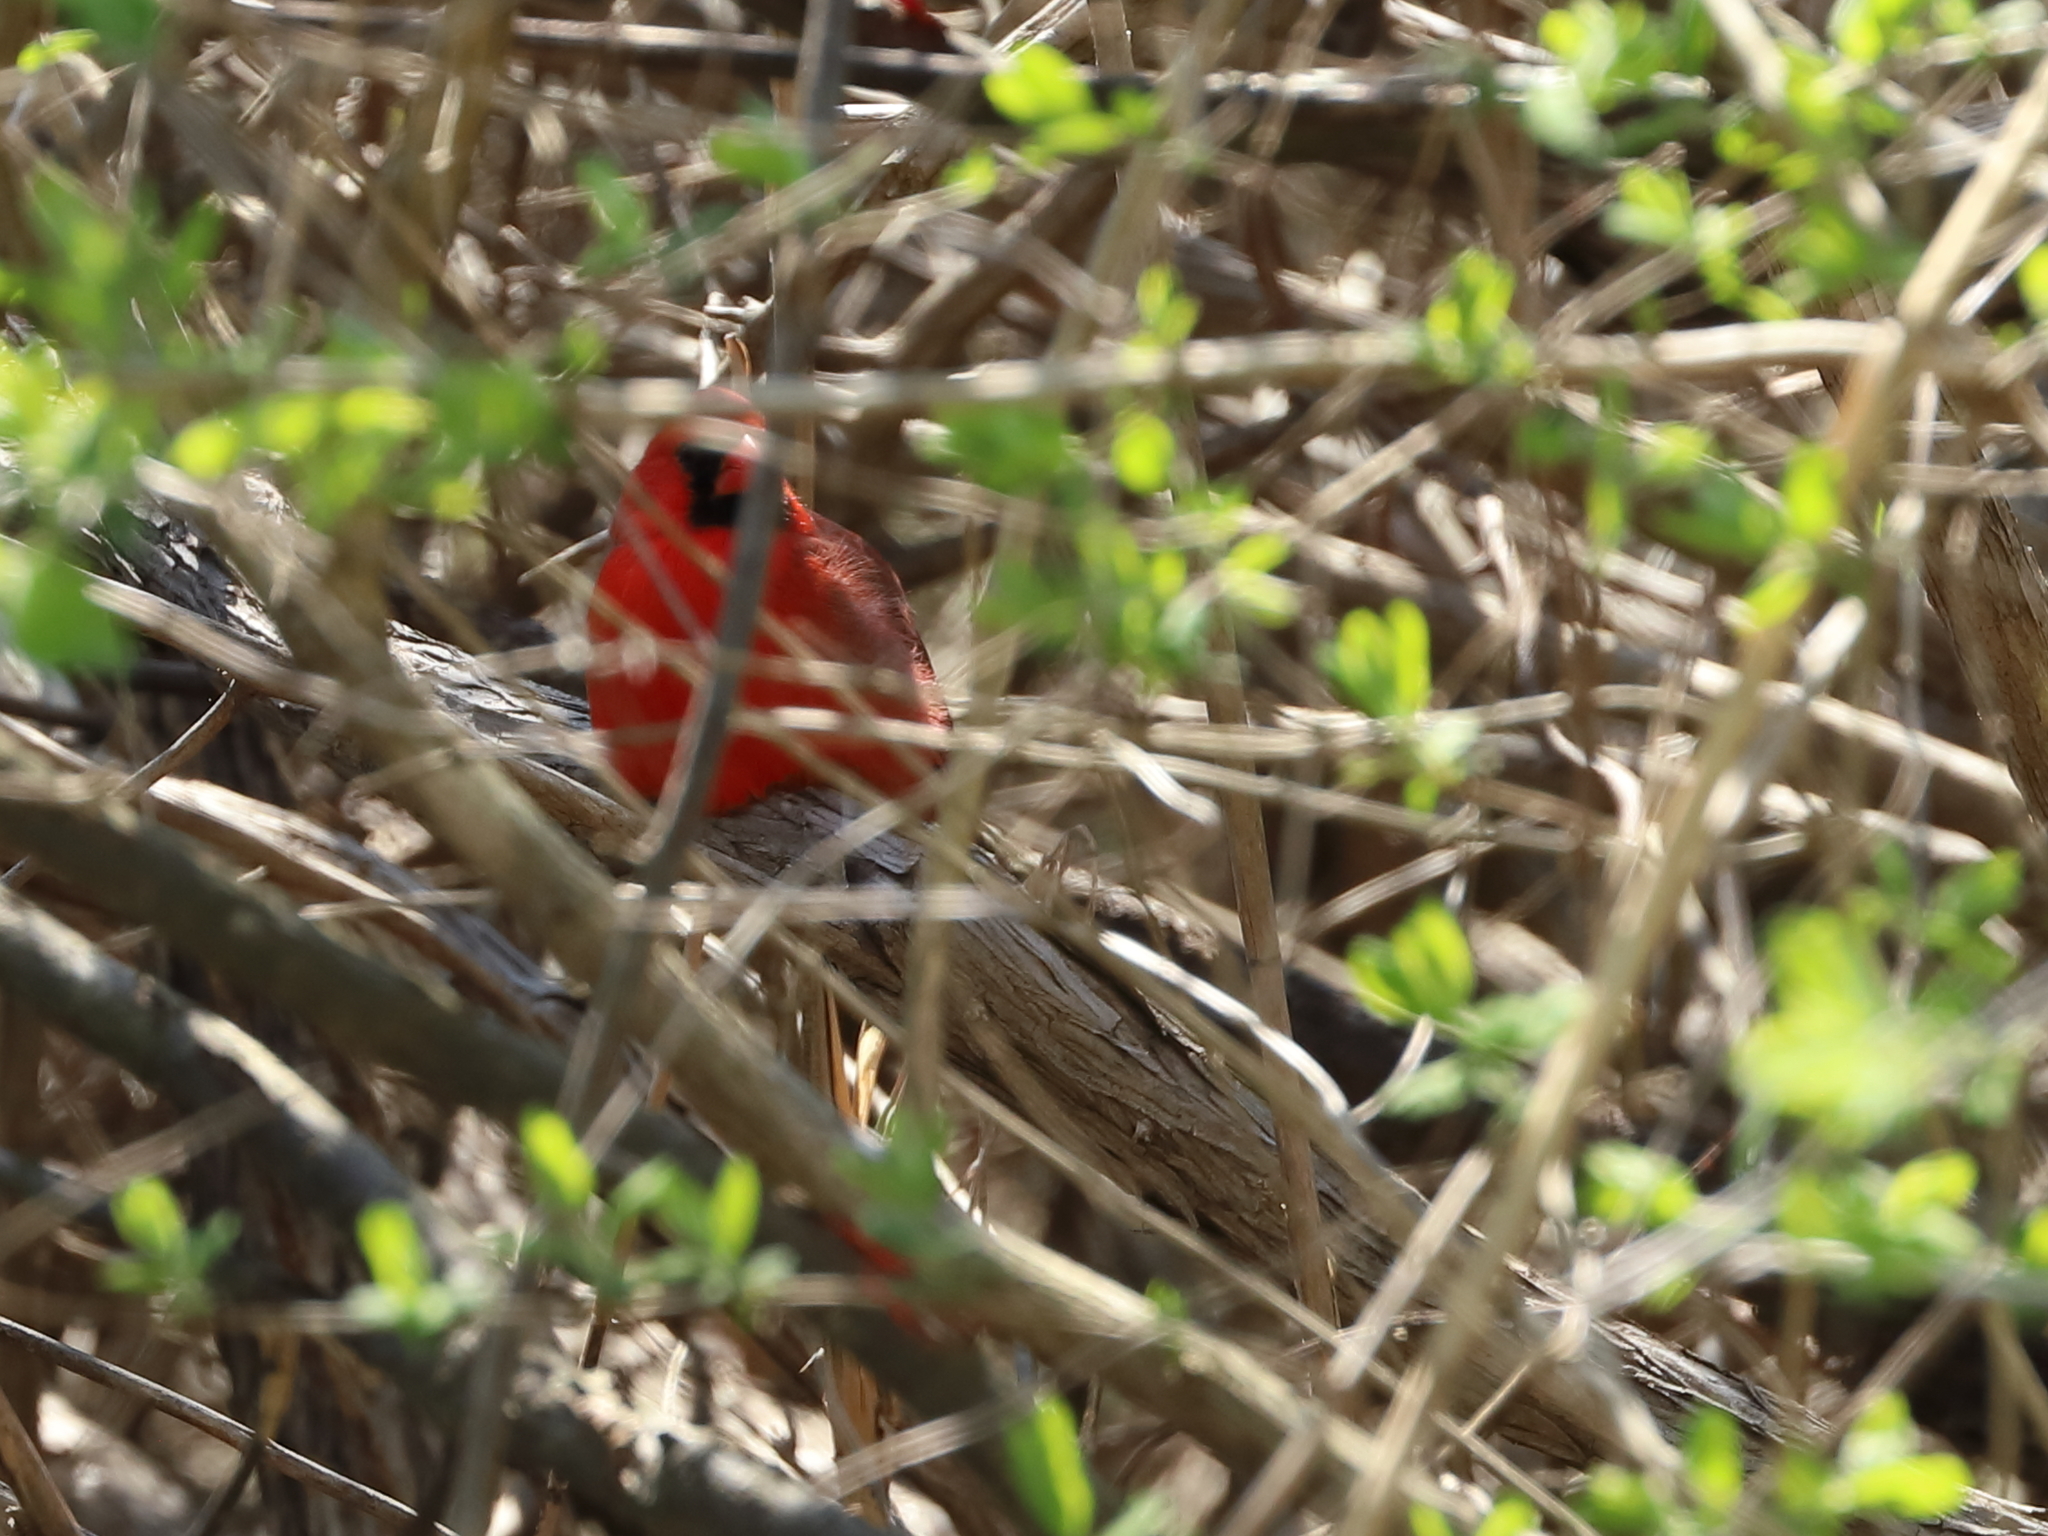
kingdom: Animalia
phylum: Chordata
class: Aves
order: Passeriformes
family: Cardinalidae
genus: Cardinalis
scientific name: Cardinalis cardinalis
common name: Northern cardinal
